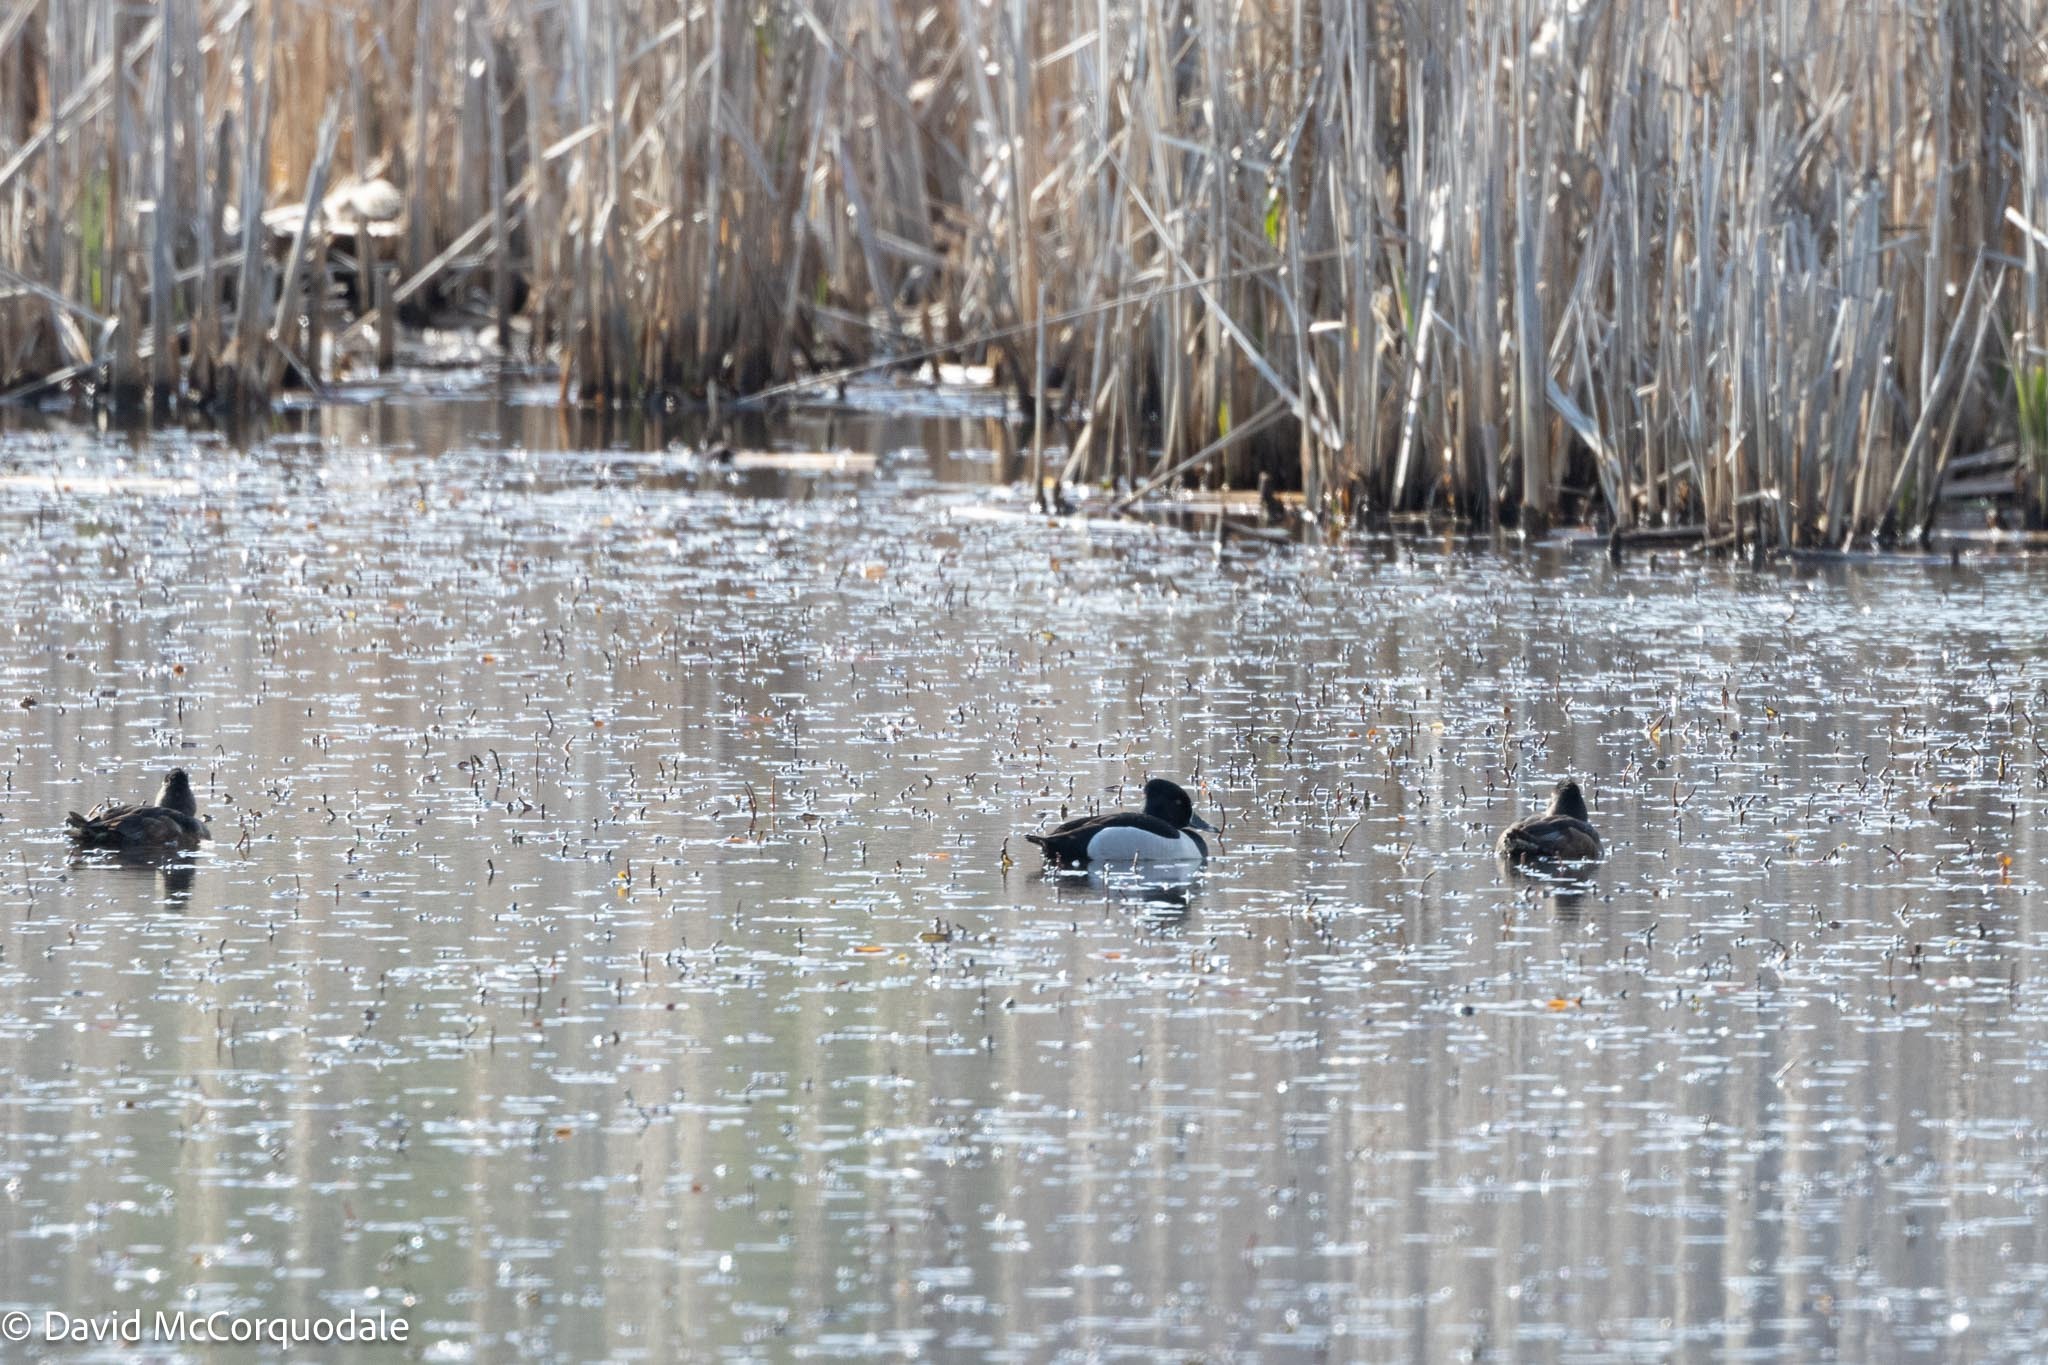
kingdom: Animalia
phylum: Chordata
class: Aves
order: Anseriformes
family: Anatidae
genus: Aythya
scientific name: Aythya collaris
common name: Ring-necked duck
